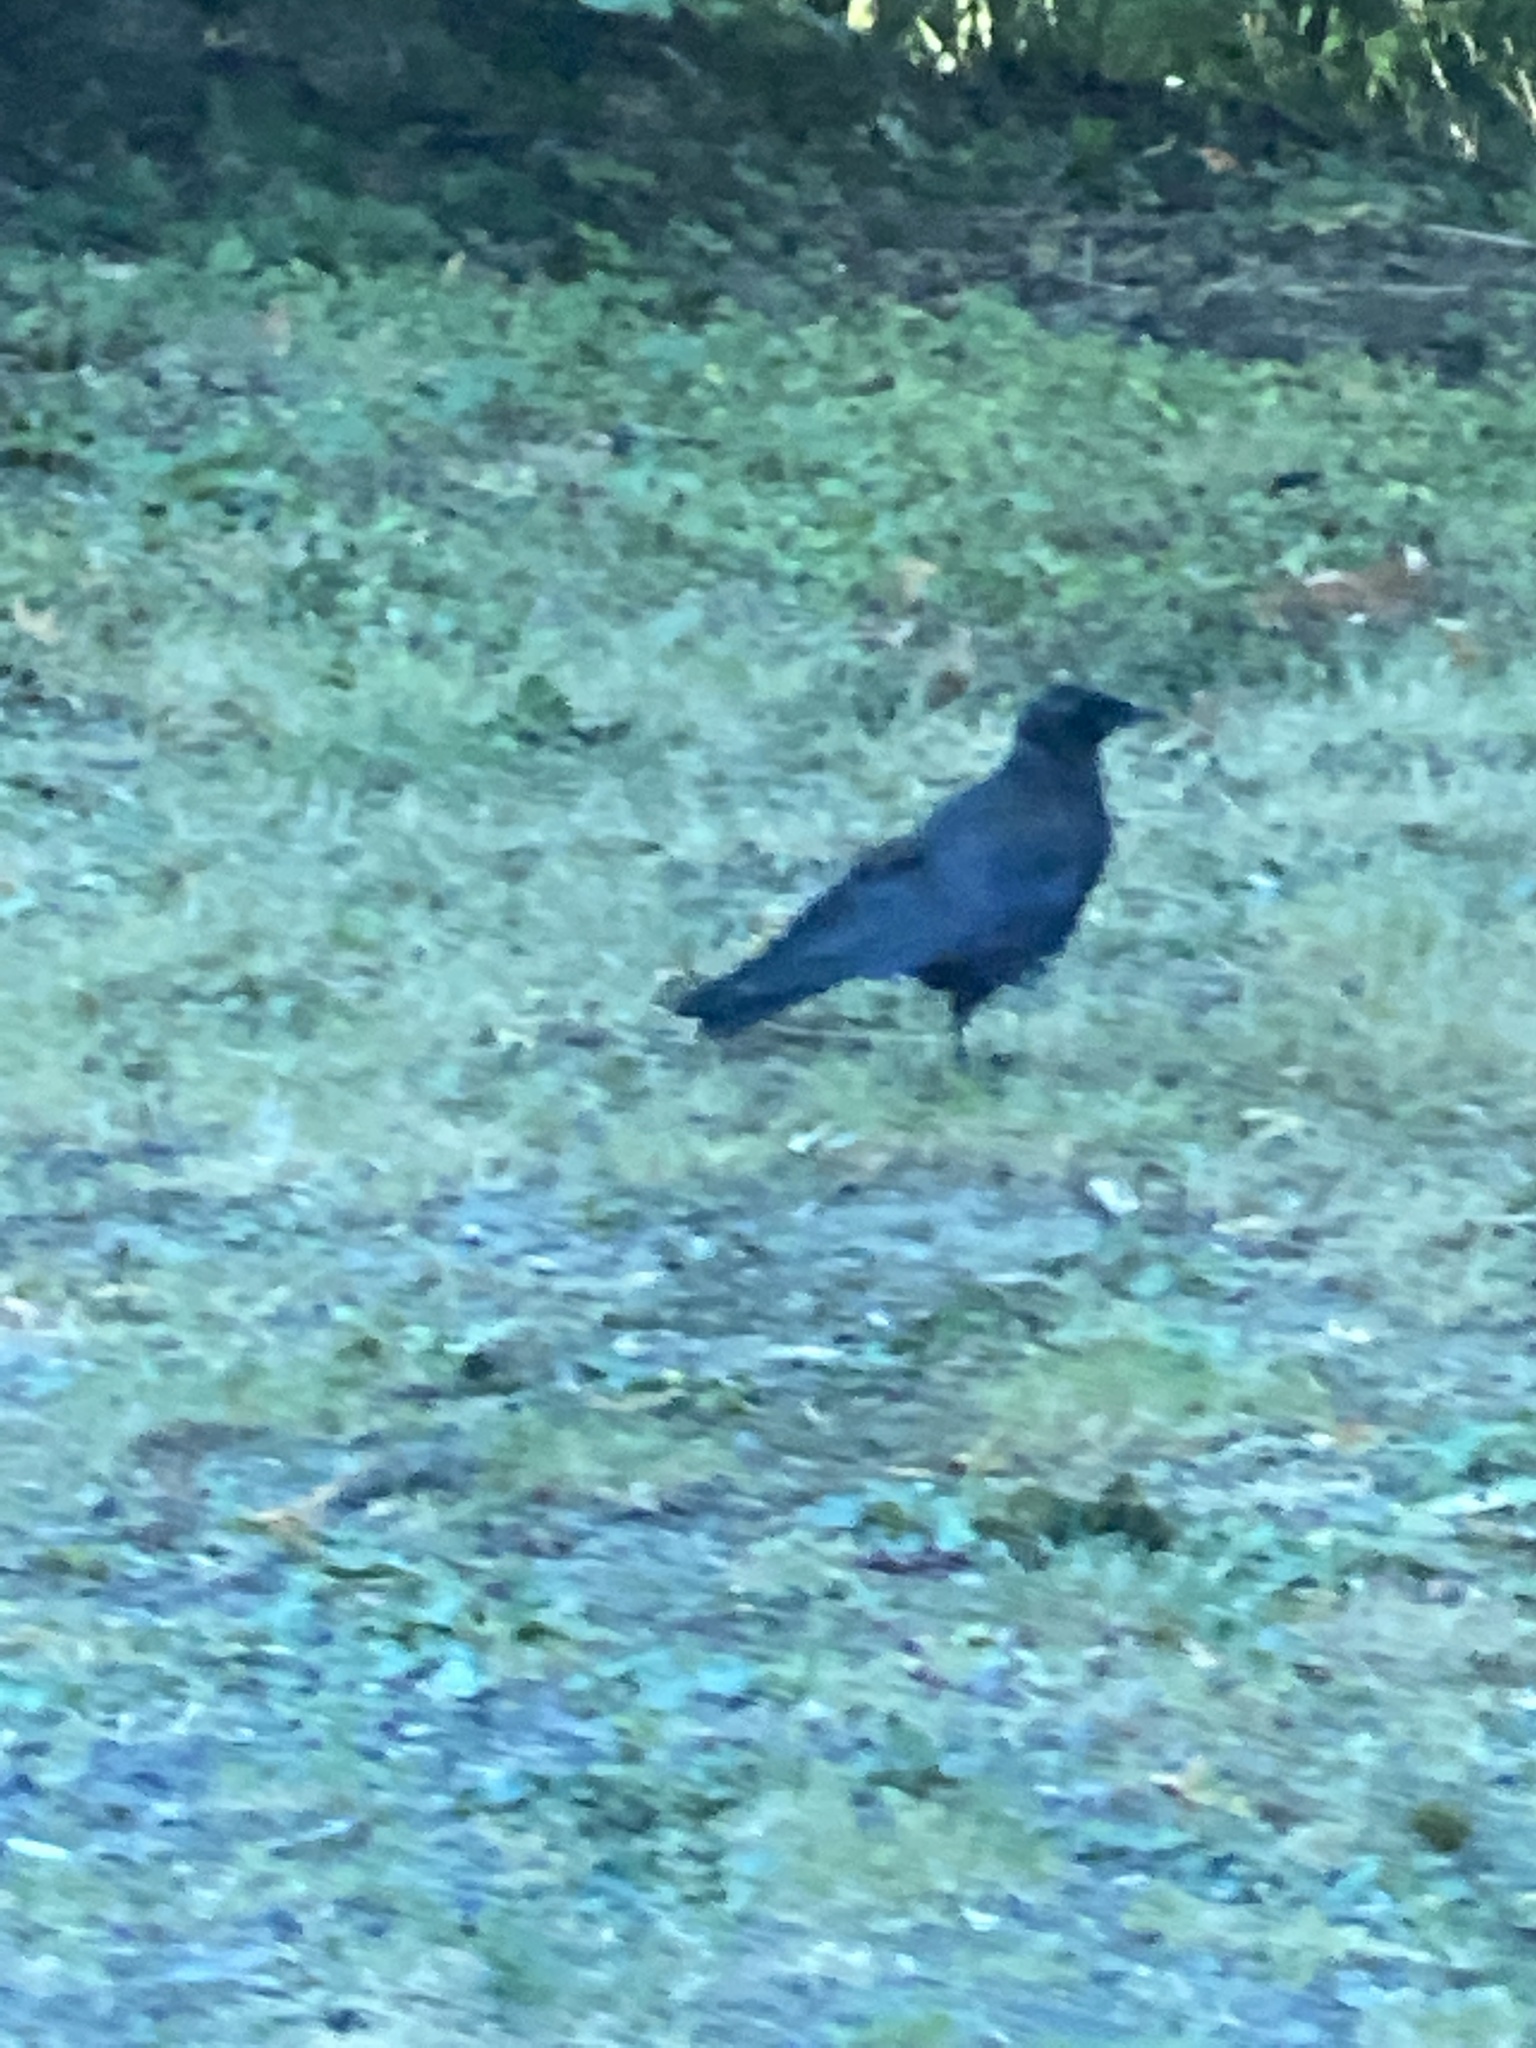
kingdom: Animalia
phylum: Chordata
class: Aves
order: Passeriformes
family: Corvidae
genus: Corvus
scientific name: Corvus brachyrhynchos
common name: American crow
